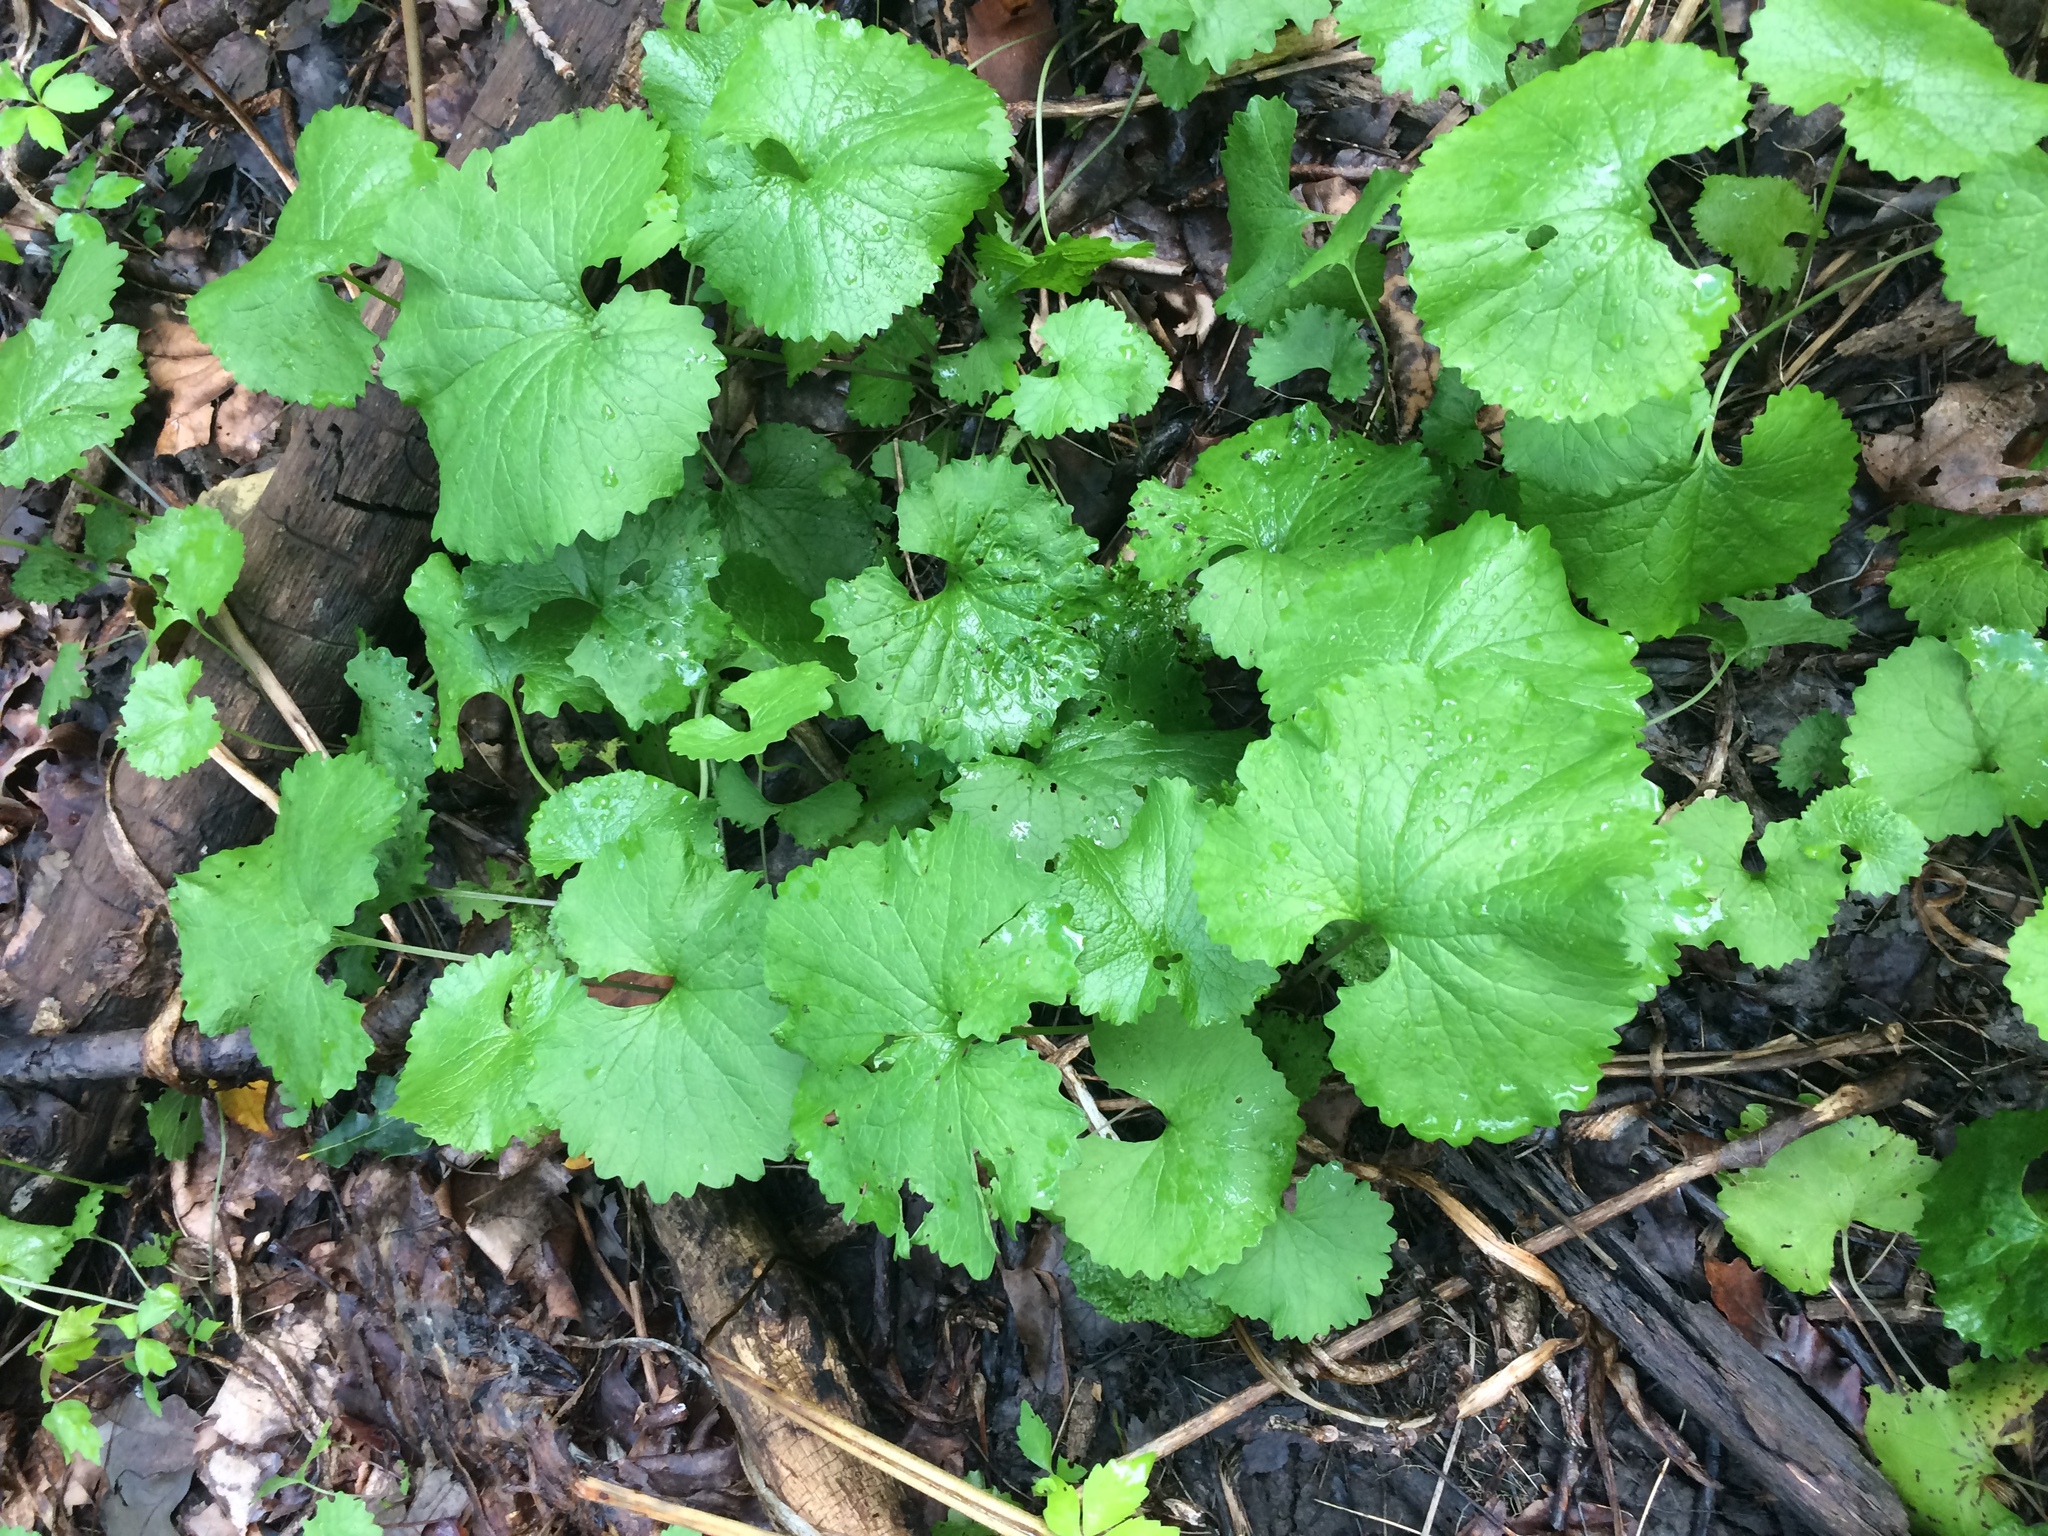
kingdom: Plantae
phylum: Tracheophyta
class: Magnoliopsida
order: Brassicales
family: Brassicaceae
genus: Alliaria
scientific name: Alliaria petiolata
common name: Garlic mustard
